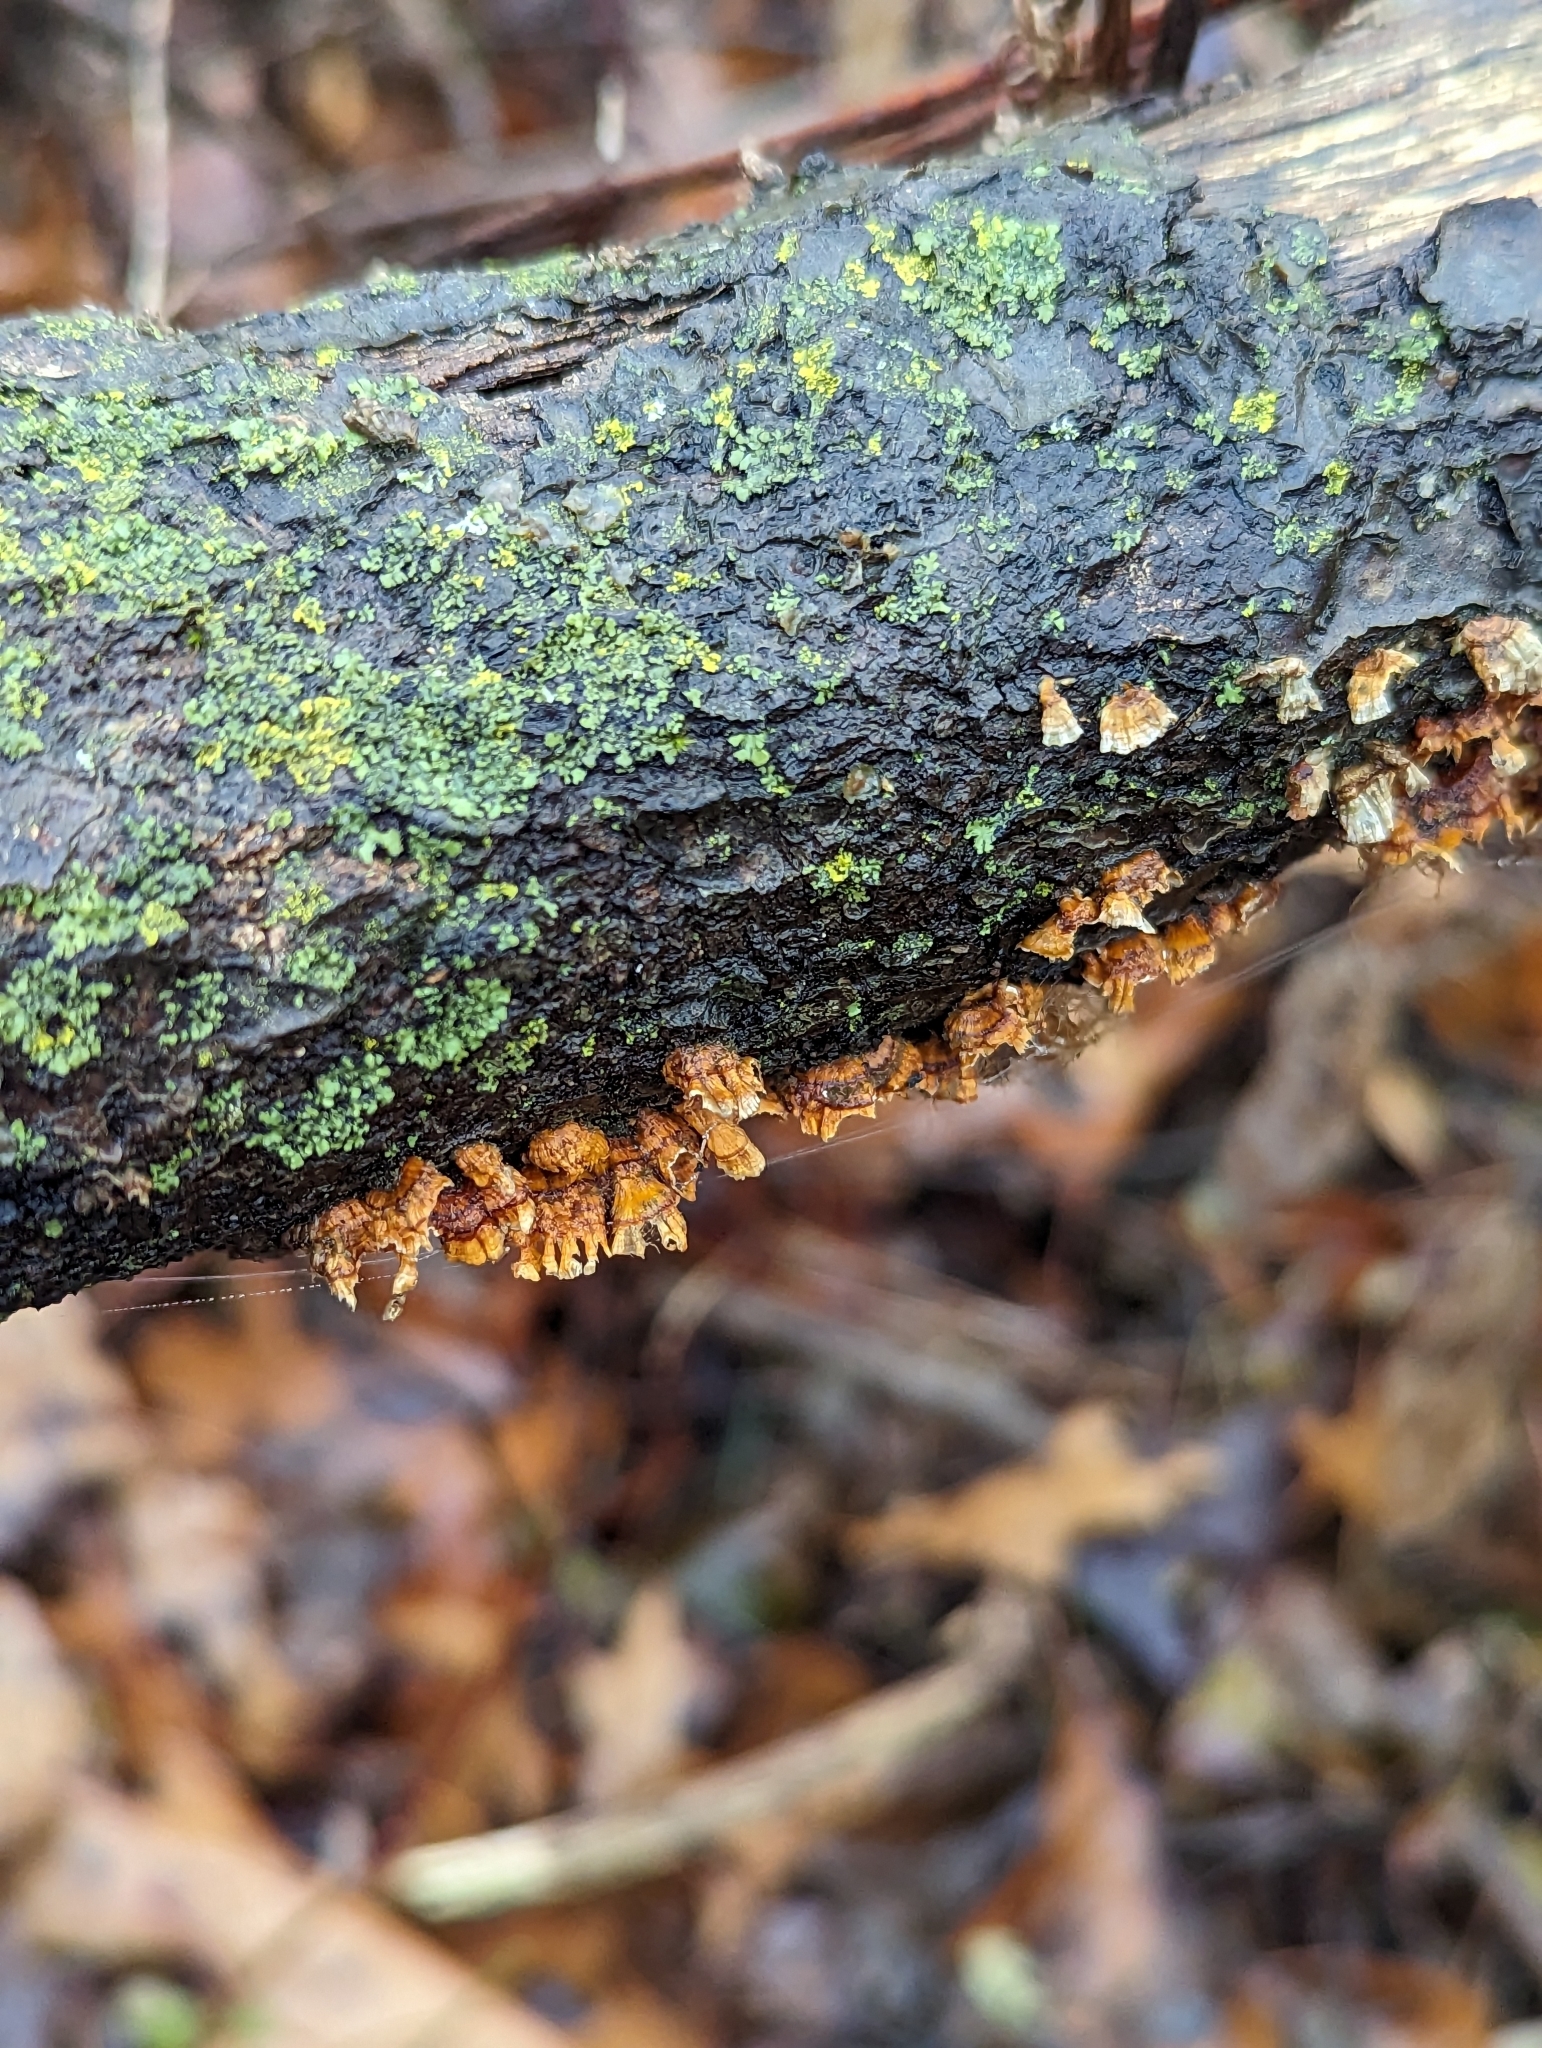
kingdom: Fungi
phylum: Basidiomycota
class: Agaricomycetes
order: Russulales
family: Stereaceae
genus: Stereum
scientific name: Stereum complicatum
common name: Crowded parchment
